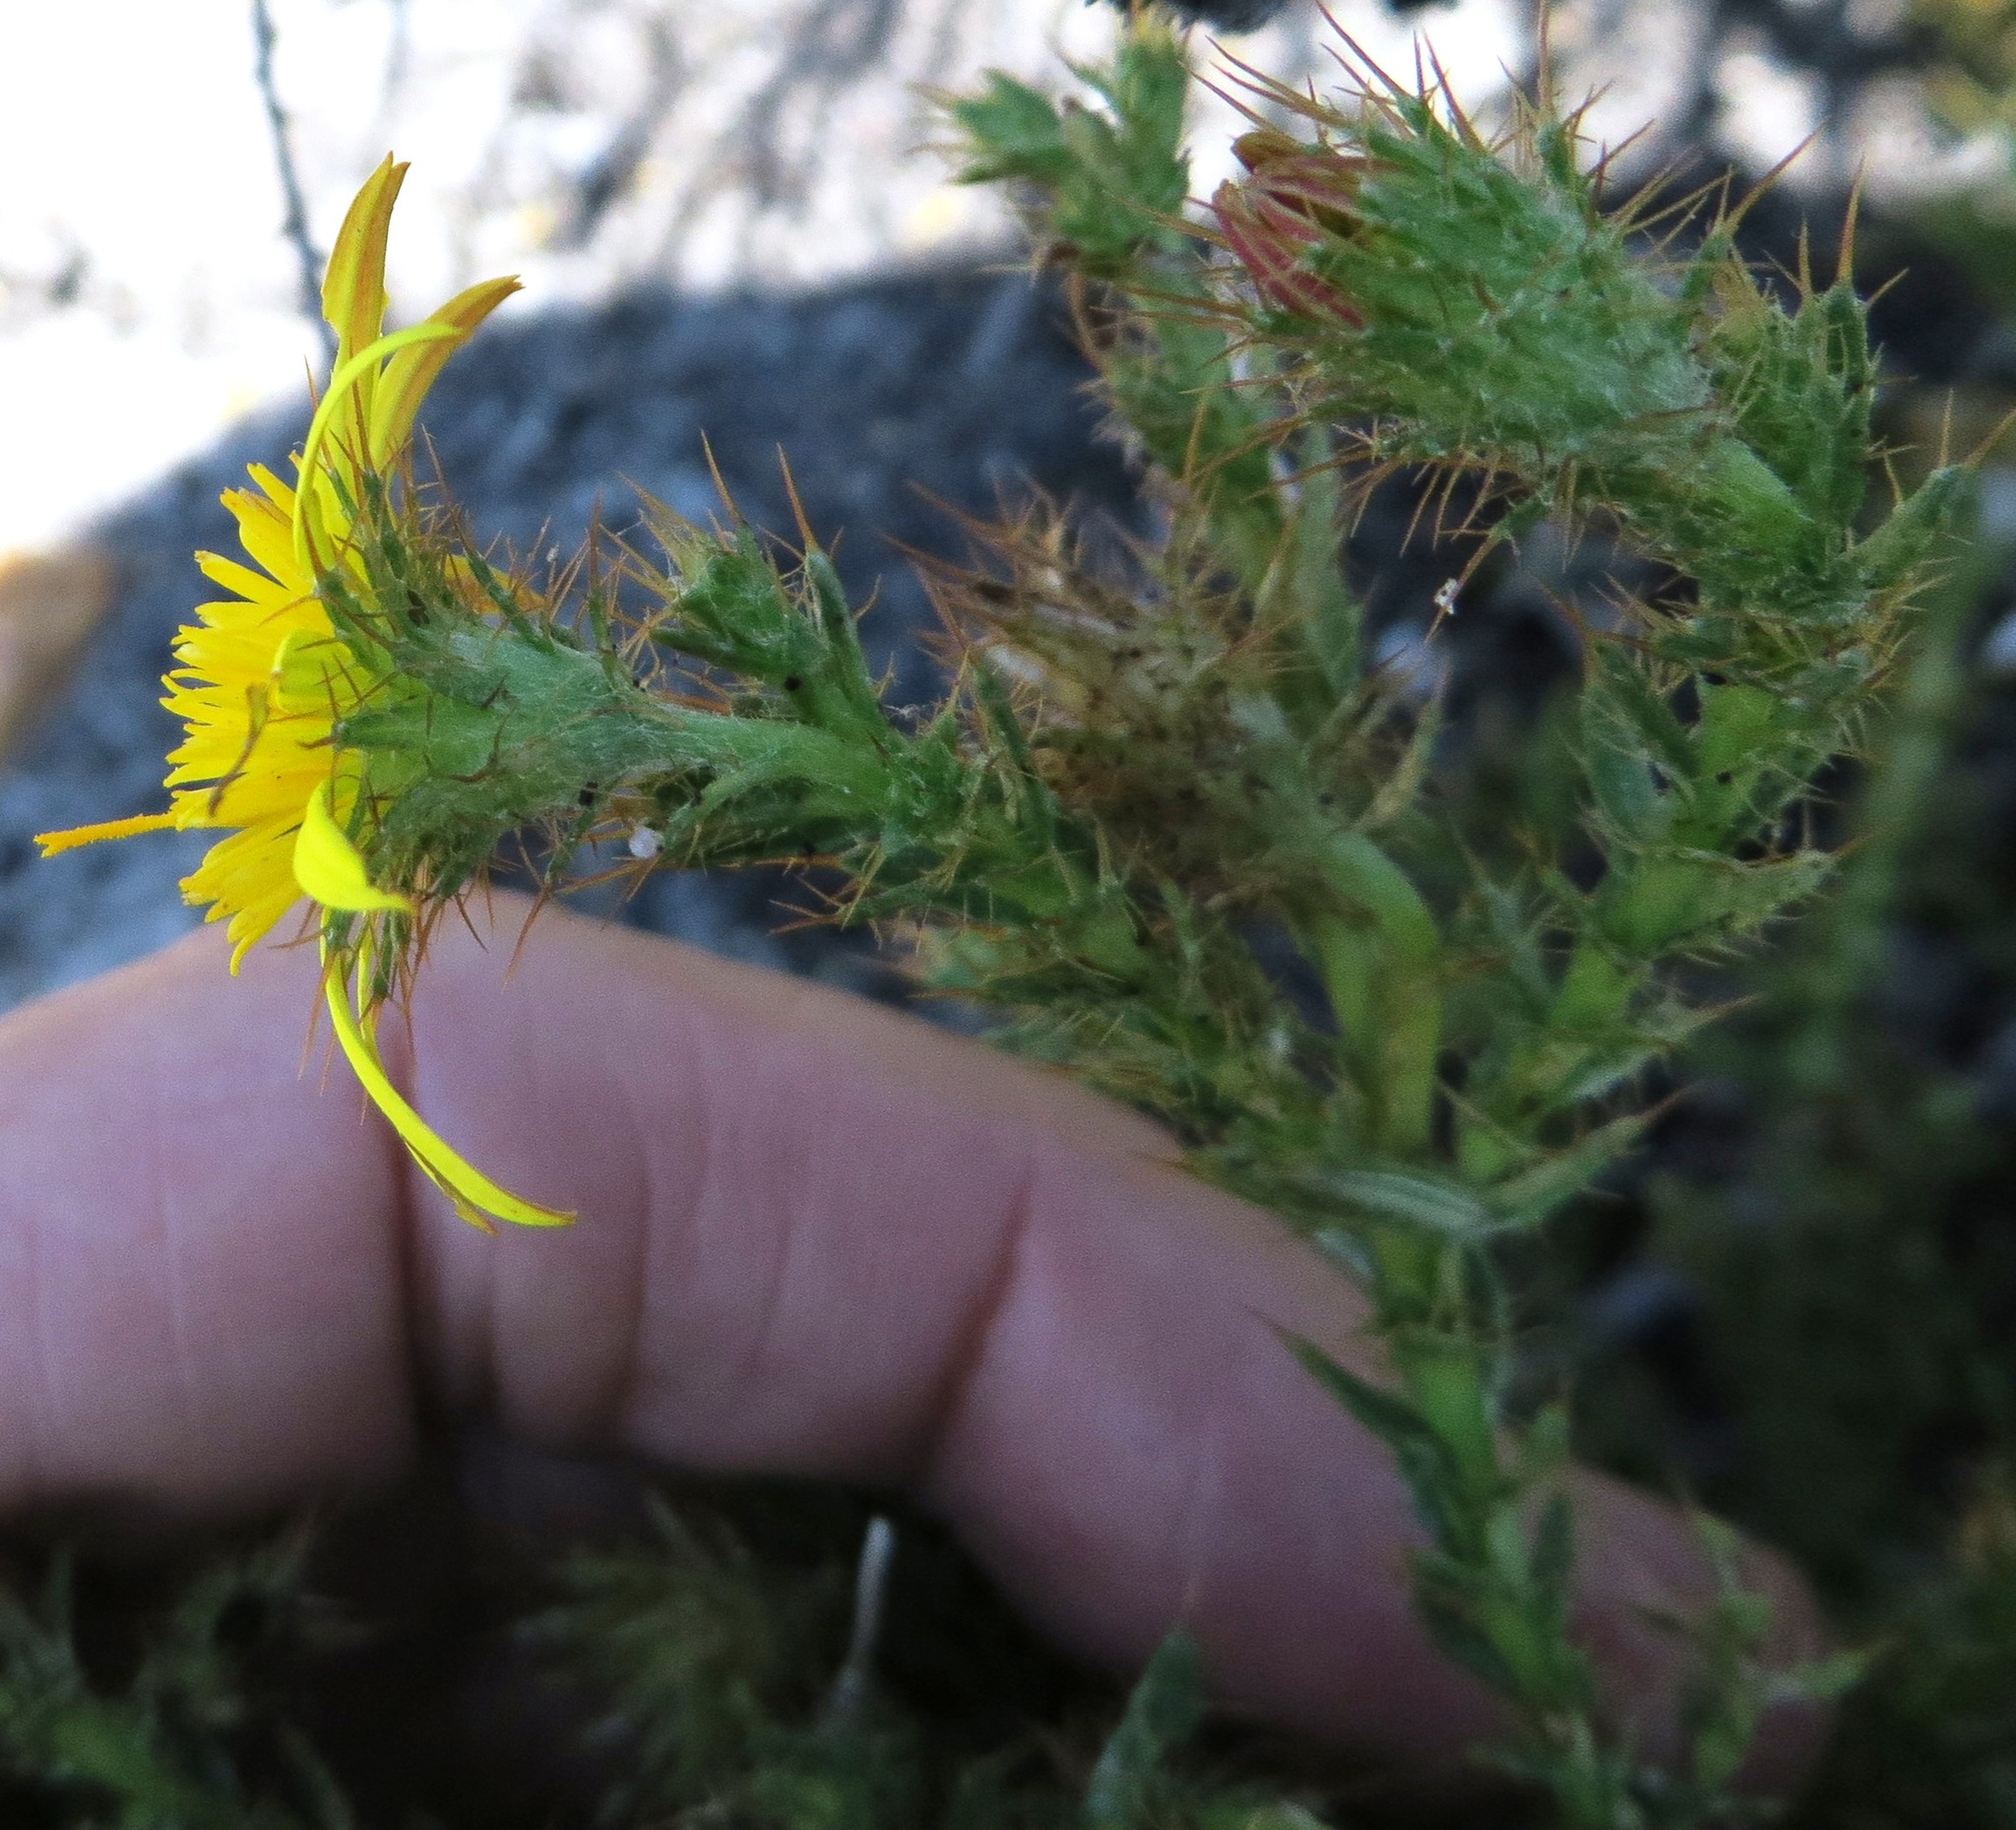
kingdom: Plantae
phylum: Tracheophyta
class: Magnoliopsida
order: Asterales
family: Asteraceae
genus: Cullumia
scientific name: Cullumia selago
